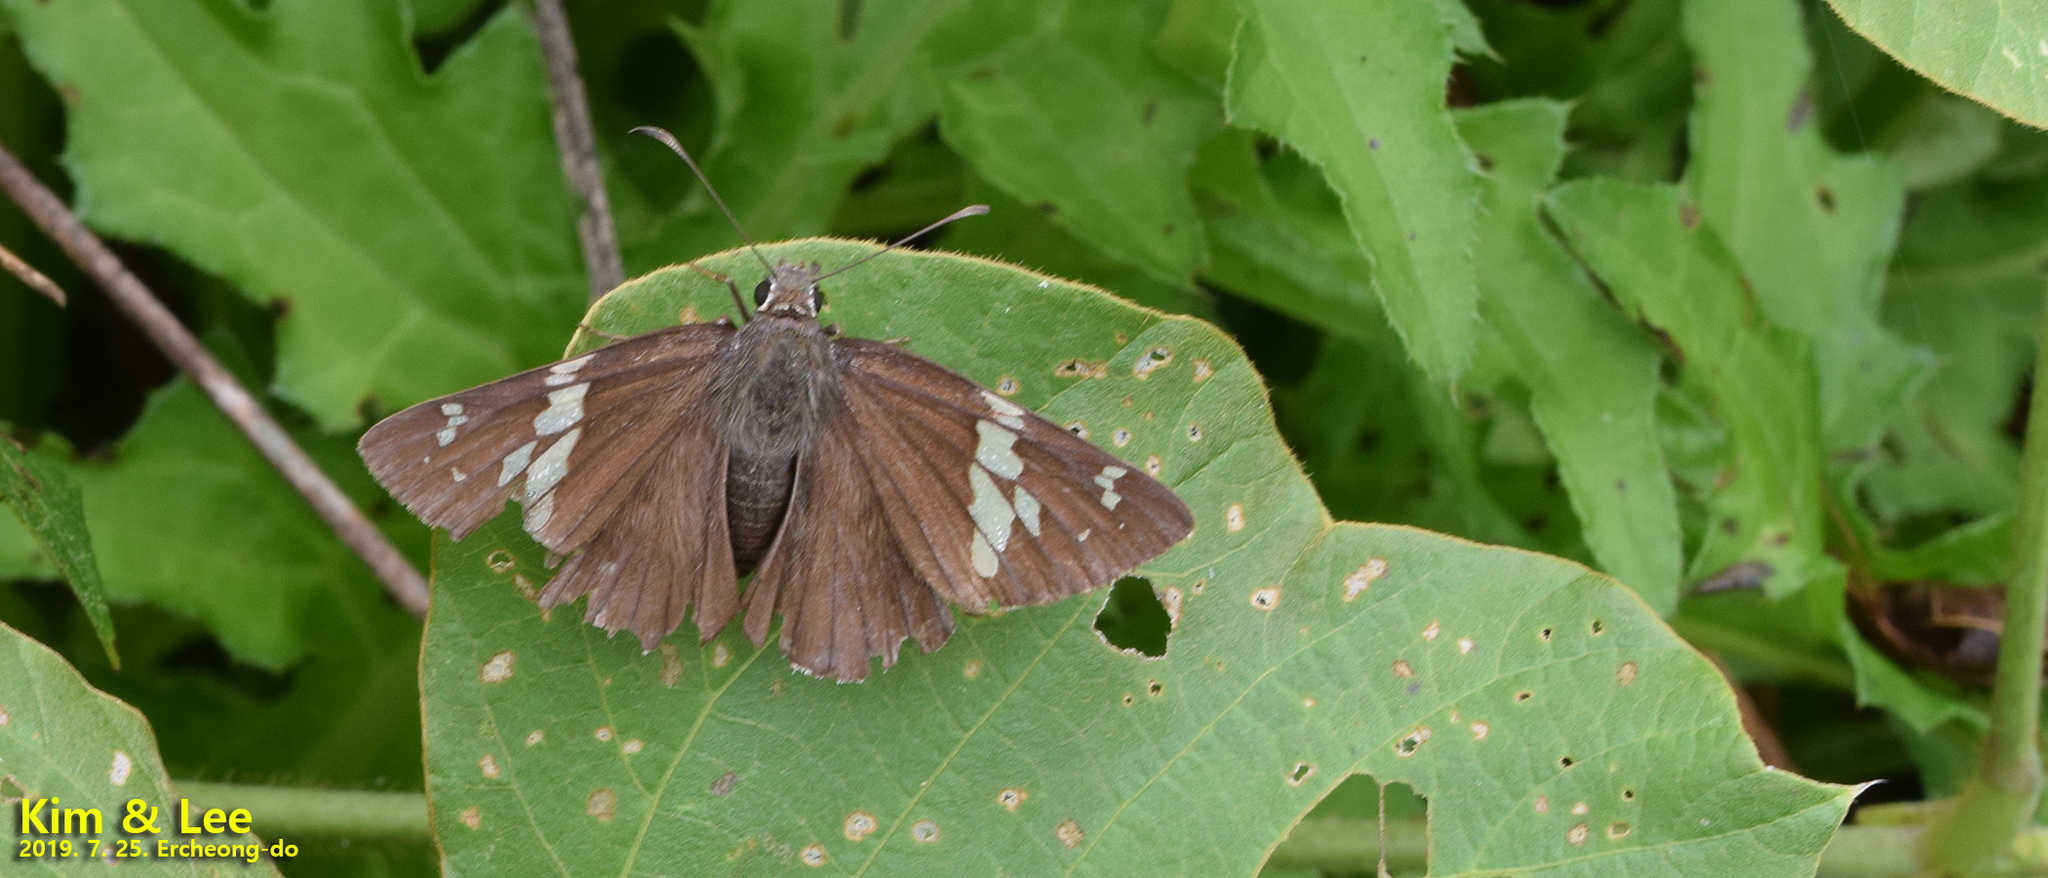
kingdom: Animalia
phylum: Arthropoda
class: Insecta
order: Lepidoptera
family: Hesperiidae
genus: Lobocla
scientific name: Lobocla bifasciatus
